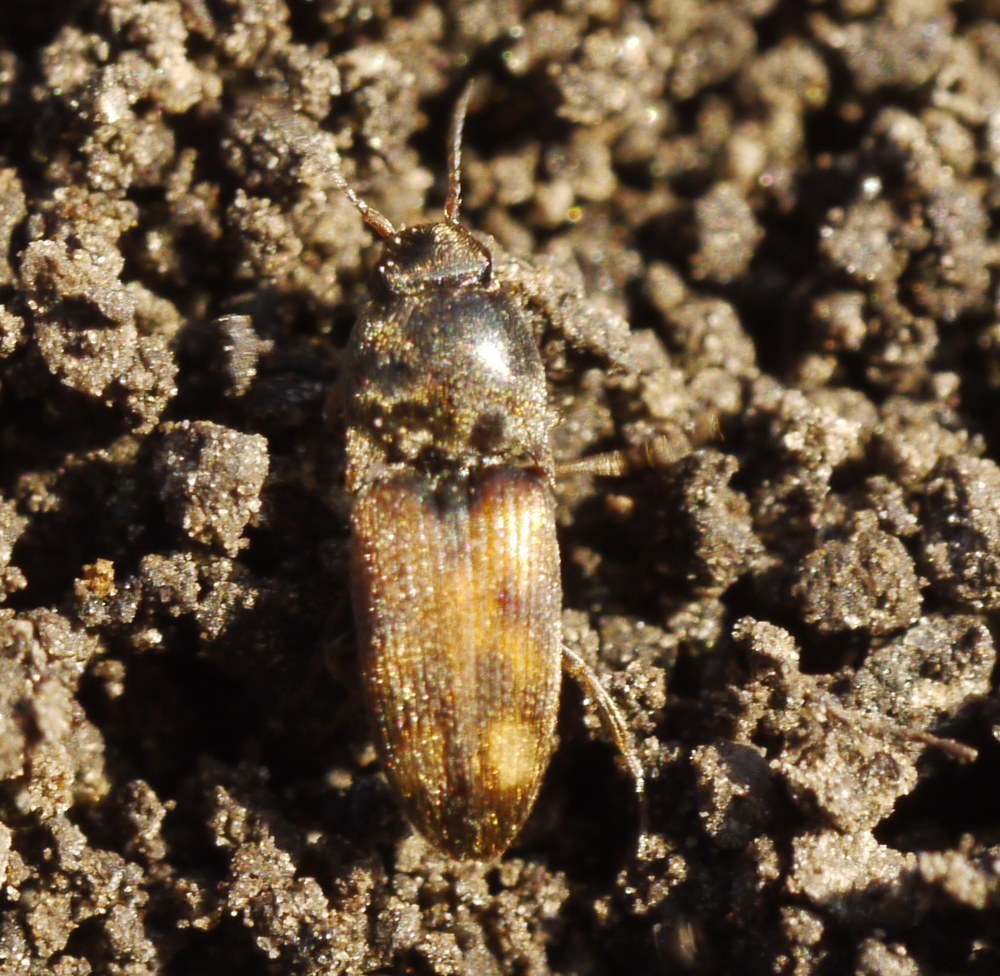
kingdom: Animalia
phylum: Arthropoda
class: Insecta
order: Coleoptera
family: Elateridae
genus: Drasterius
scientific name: Drasterius bimaculatus
